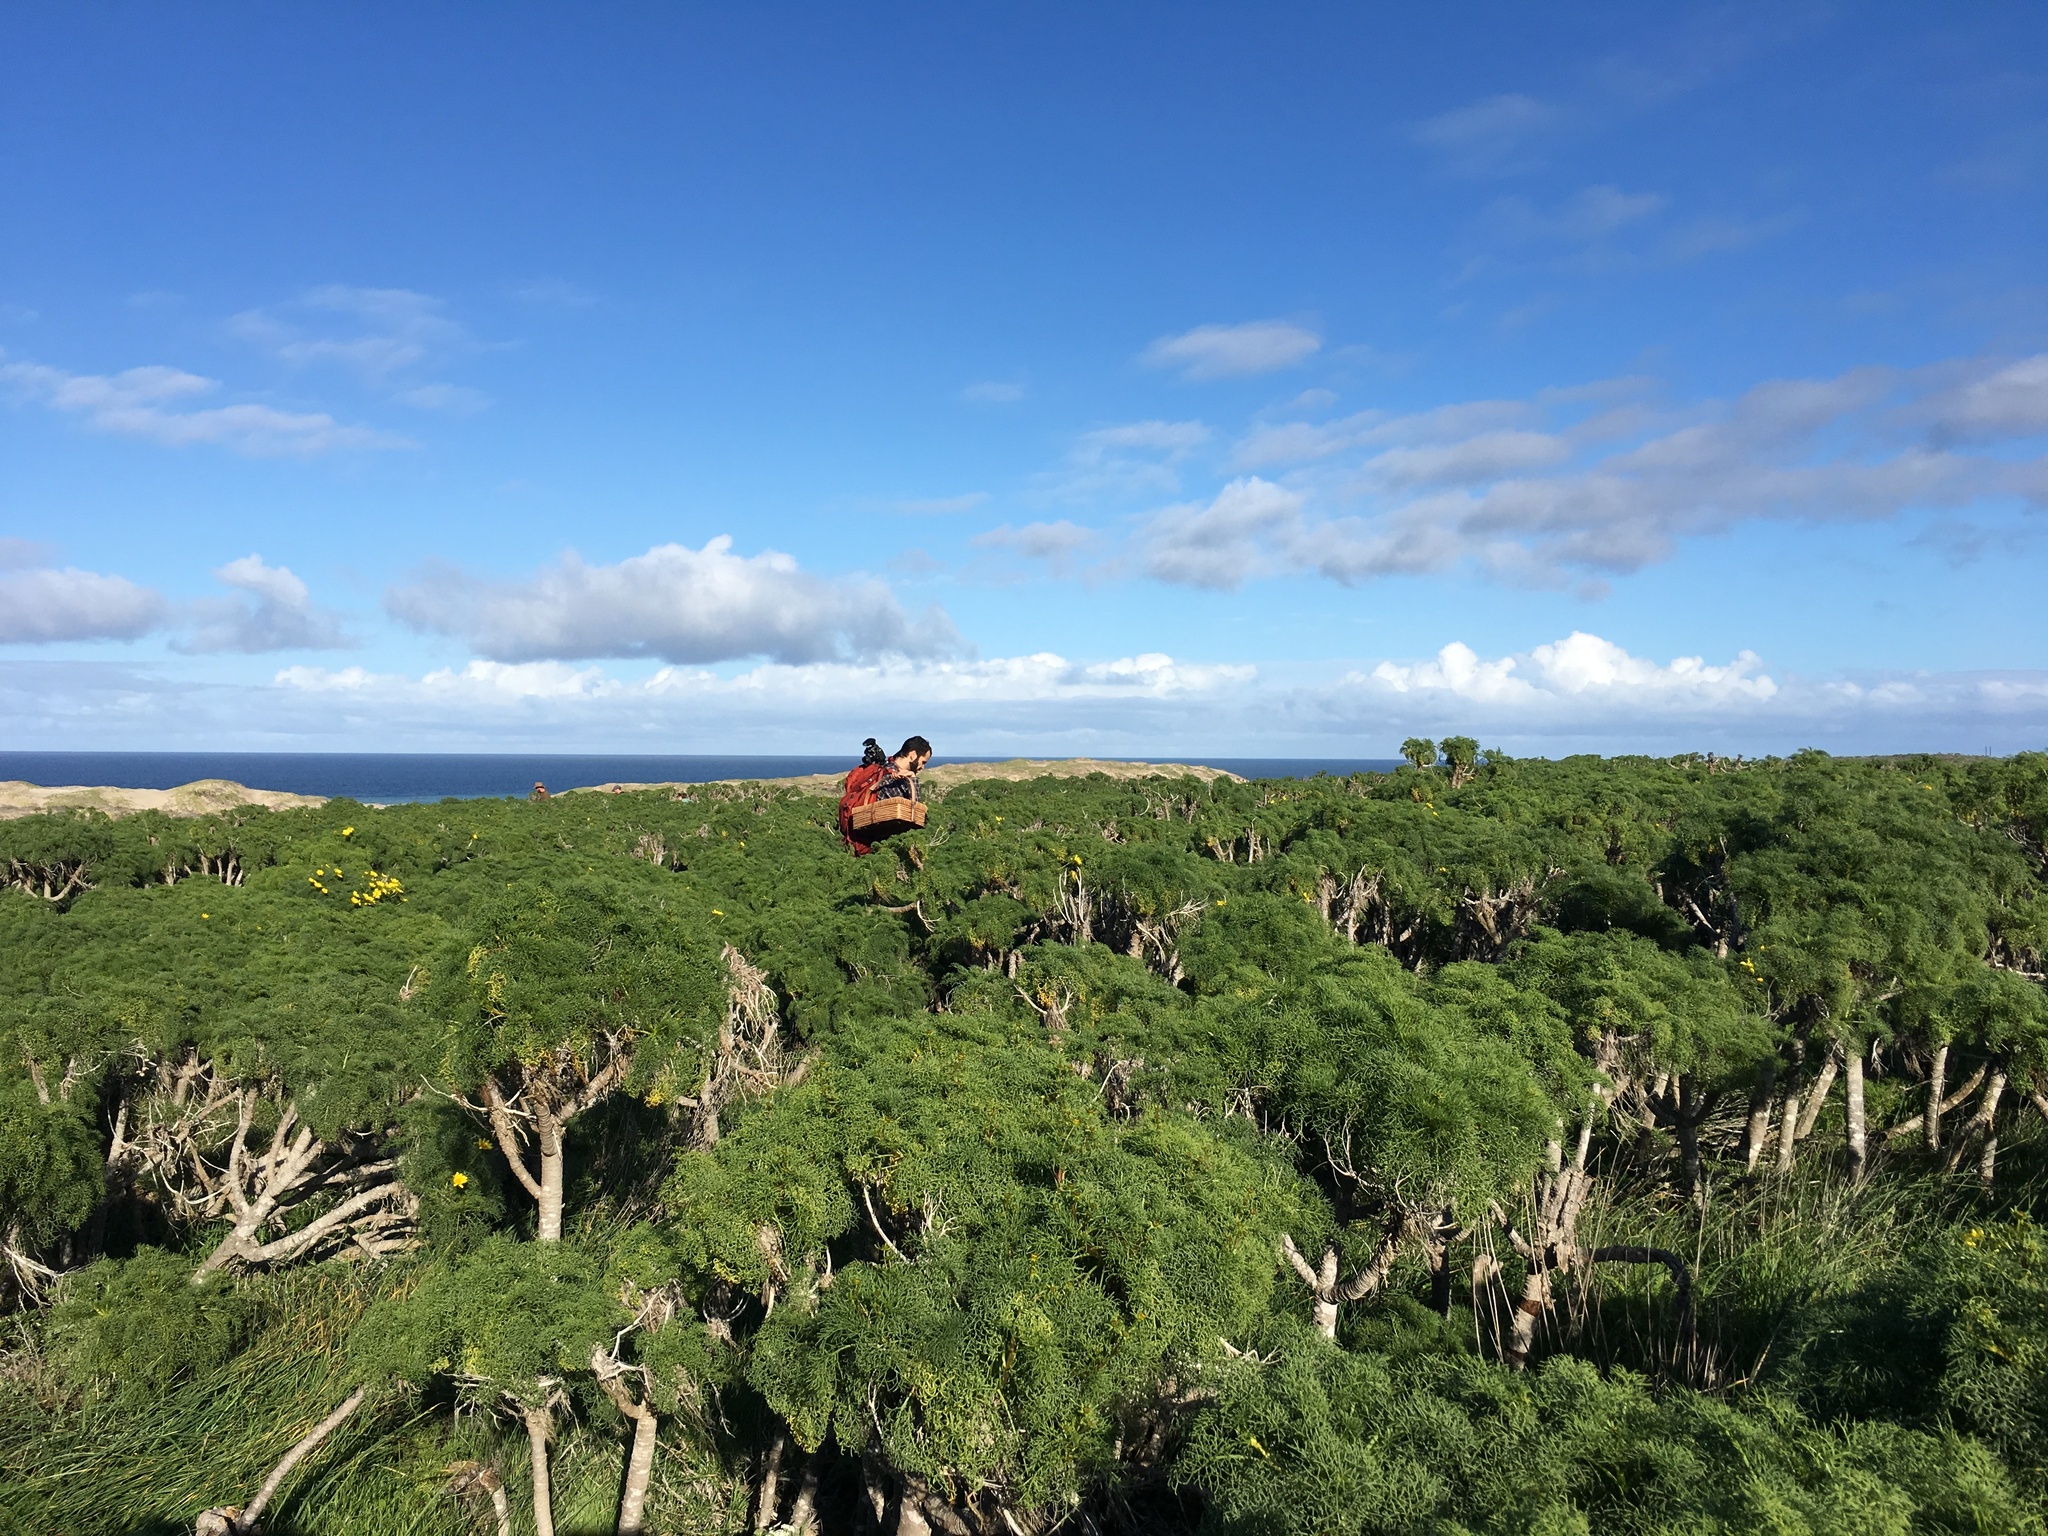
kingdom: Plantae
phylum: Tracheophyta
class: Magnoliopsida
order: Asterales
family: Asteraceae
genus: Coreopsis
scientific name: Coreopsis gigantea
